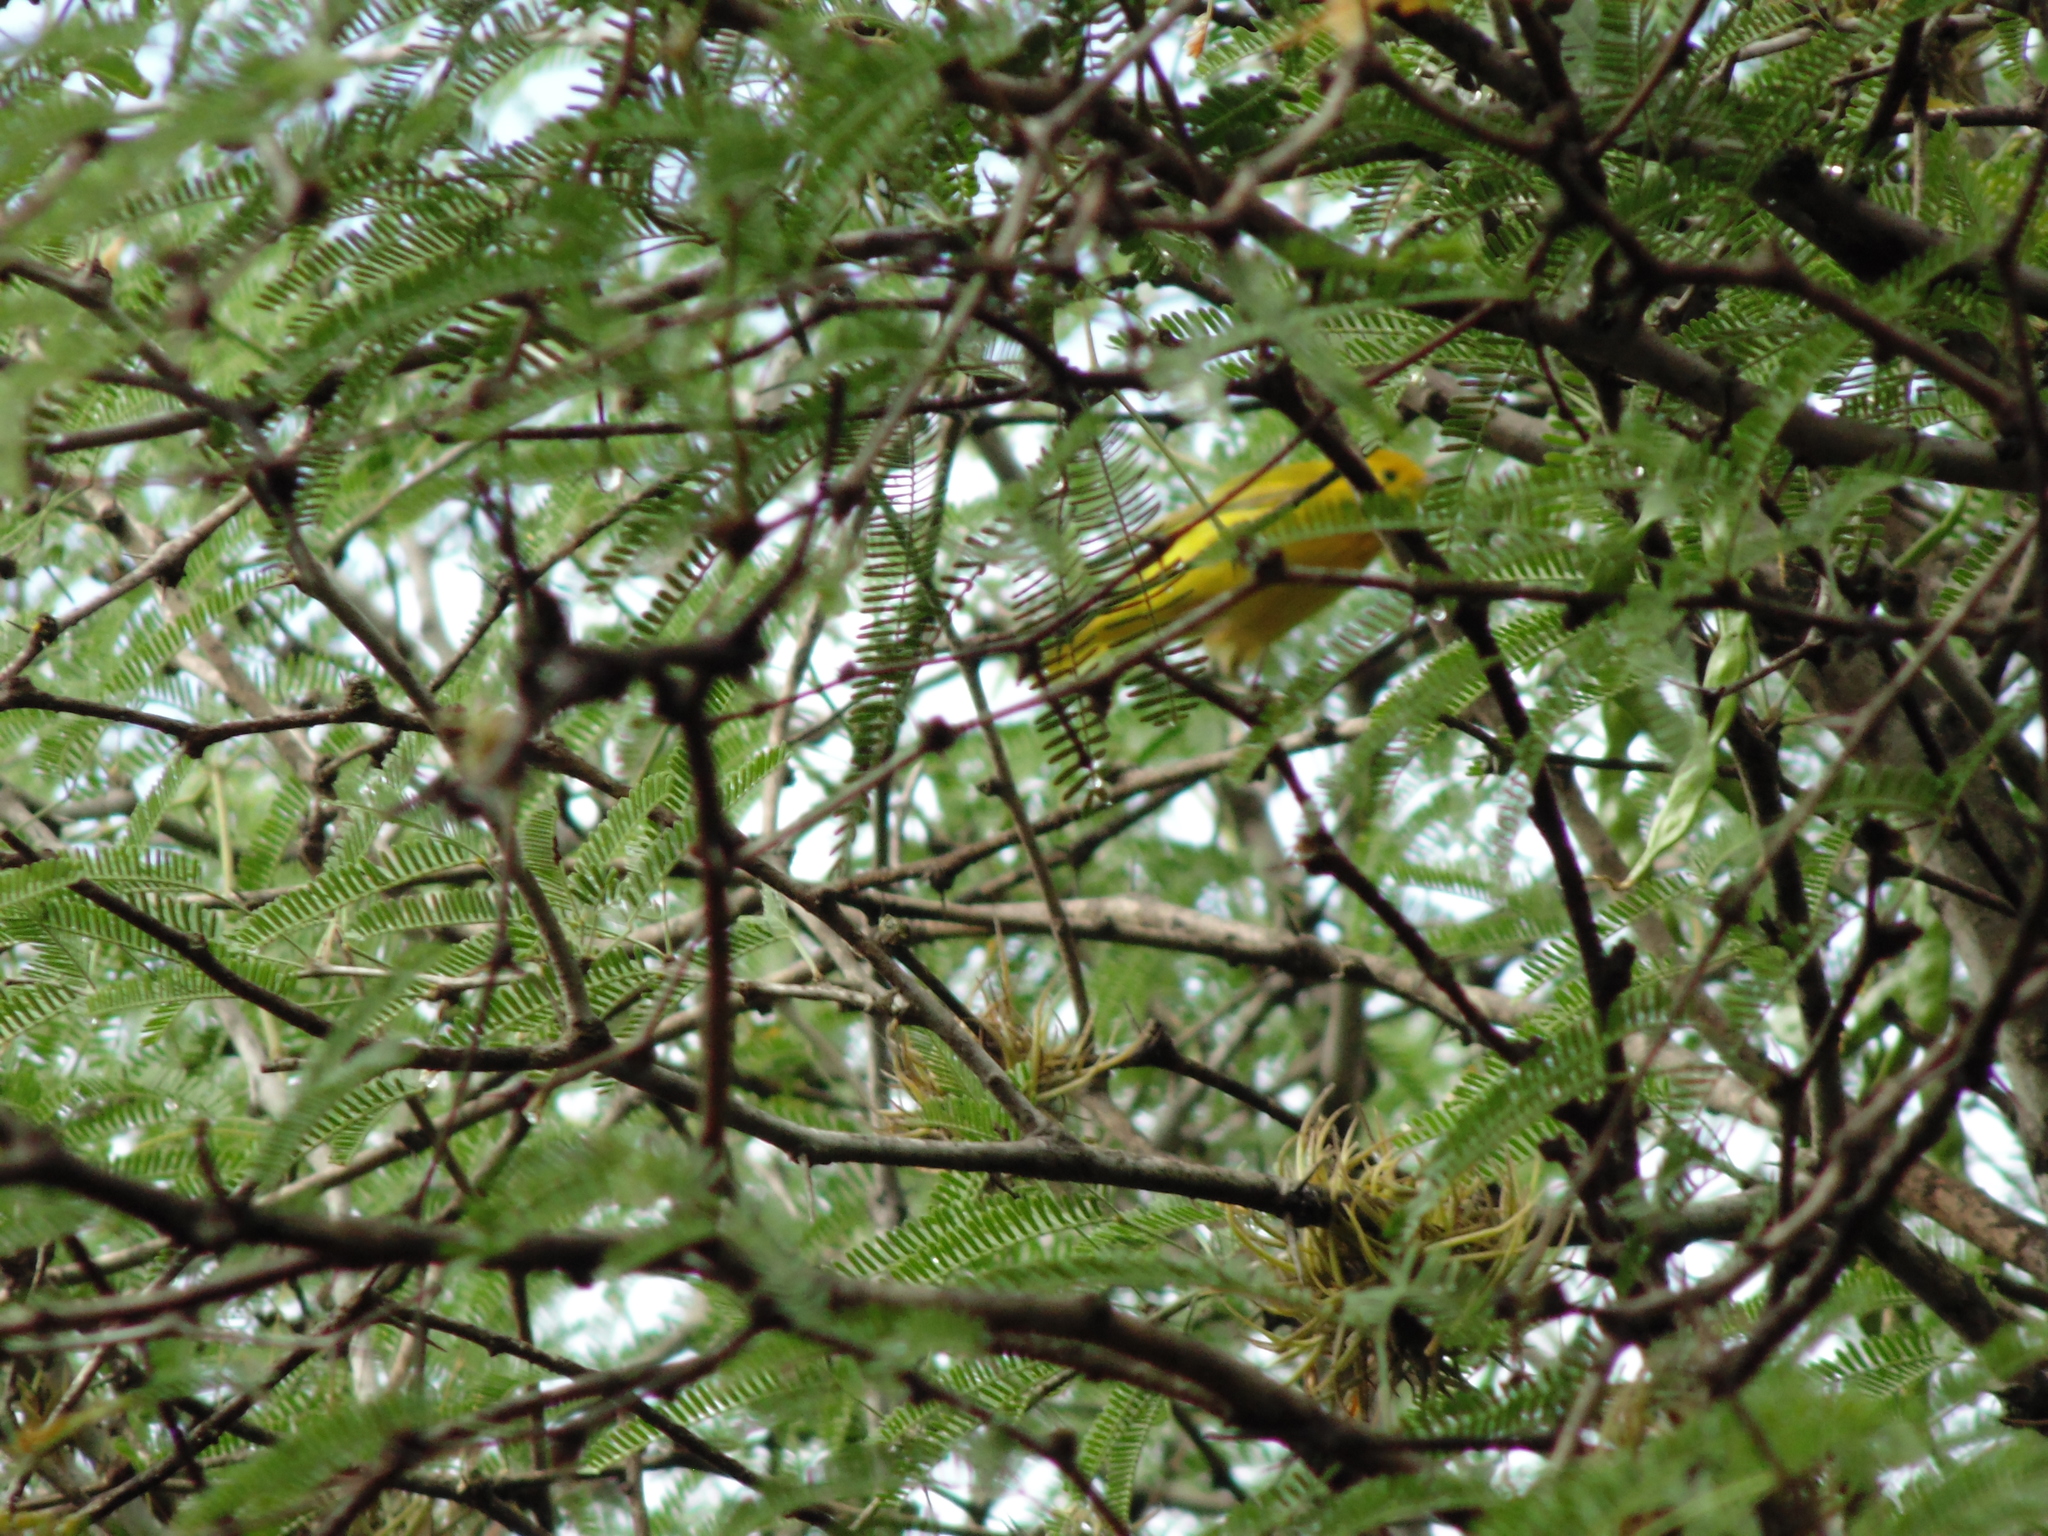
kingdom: Animalia
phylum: Chordata
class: Aves
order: Passeriformes
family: Parulidae
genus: Setophaga
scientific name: Setophaga petechia
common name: Yellow warbler
